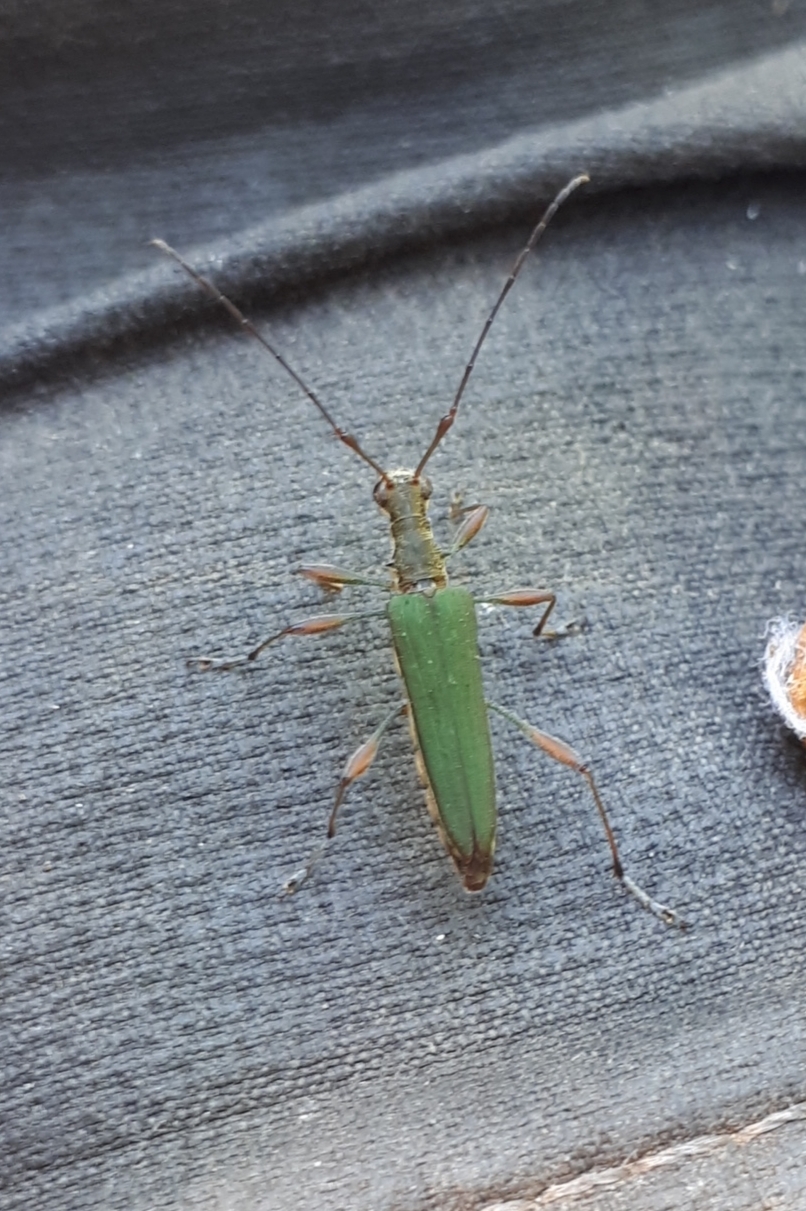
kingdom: Animalia
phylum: Arthropoda
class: Insecta
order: Coleoptera
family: Cerambycidae
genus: Calliprason
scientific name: Calliprason sinclairi
